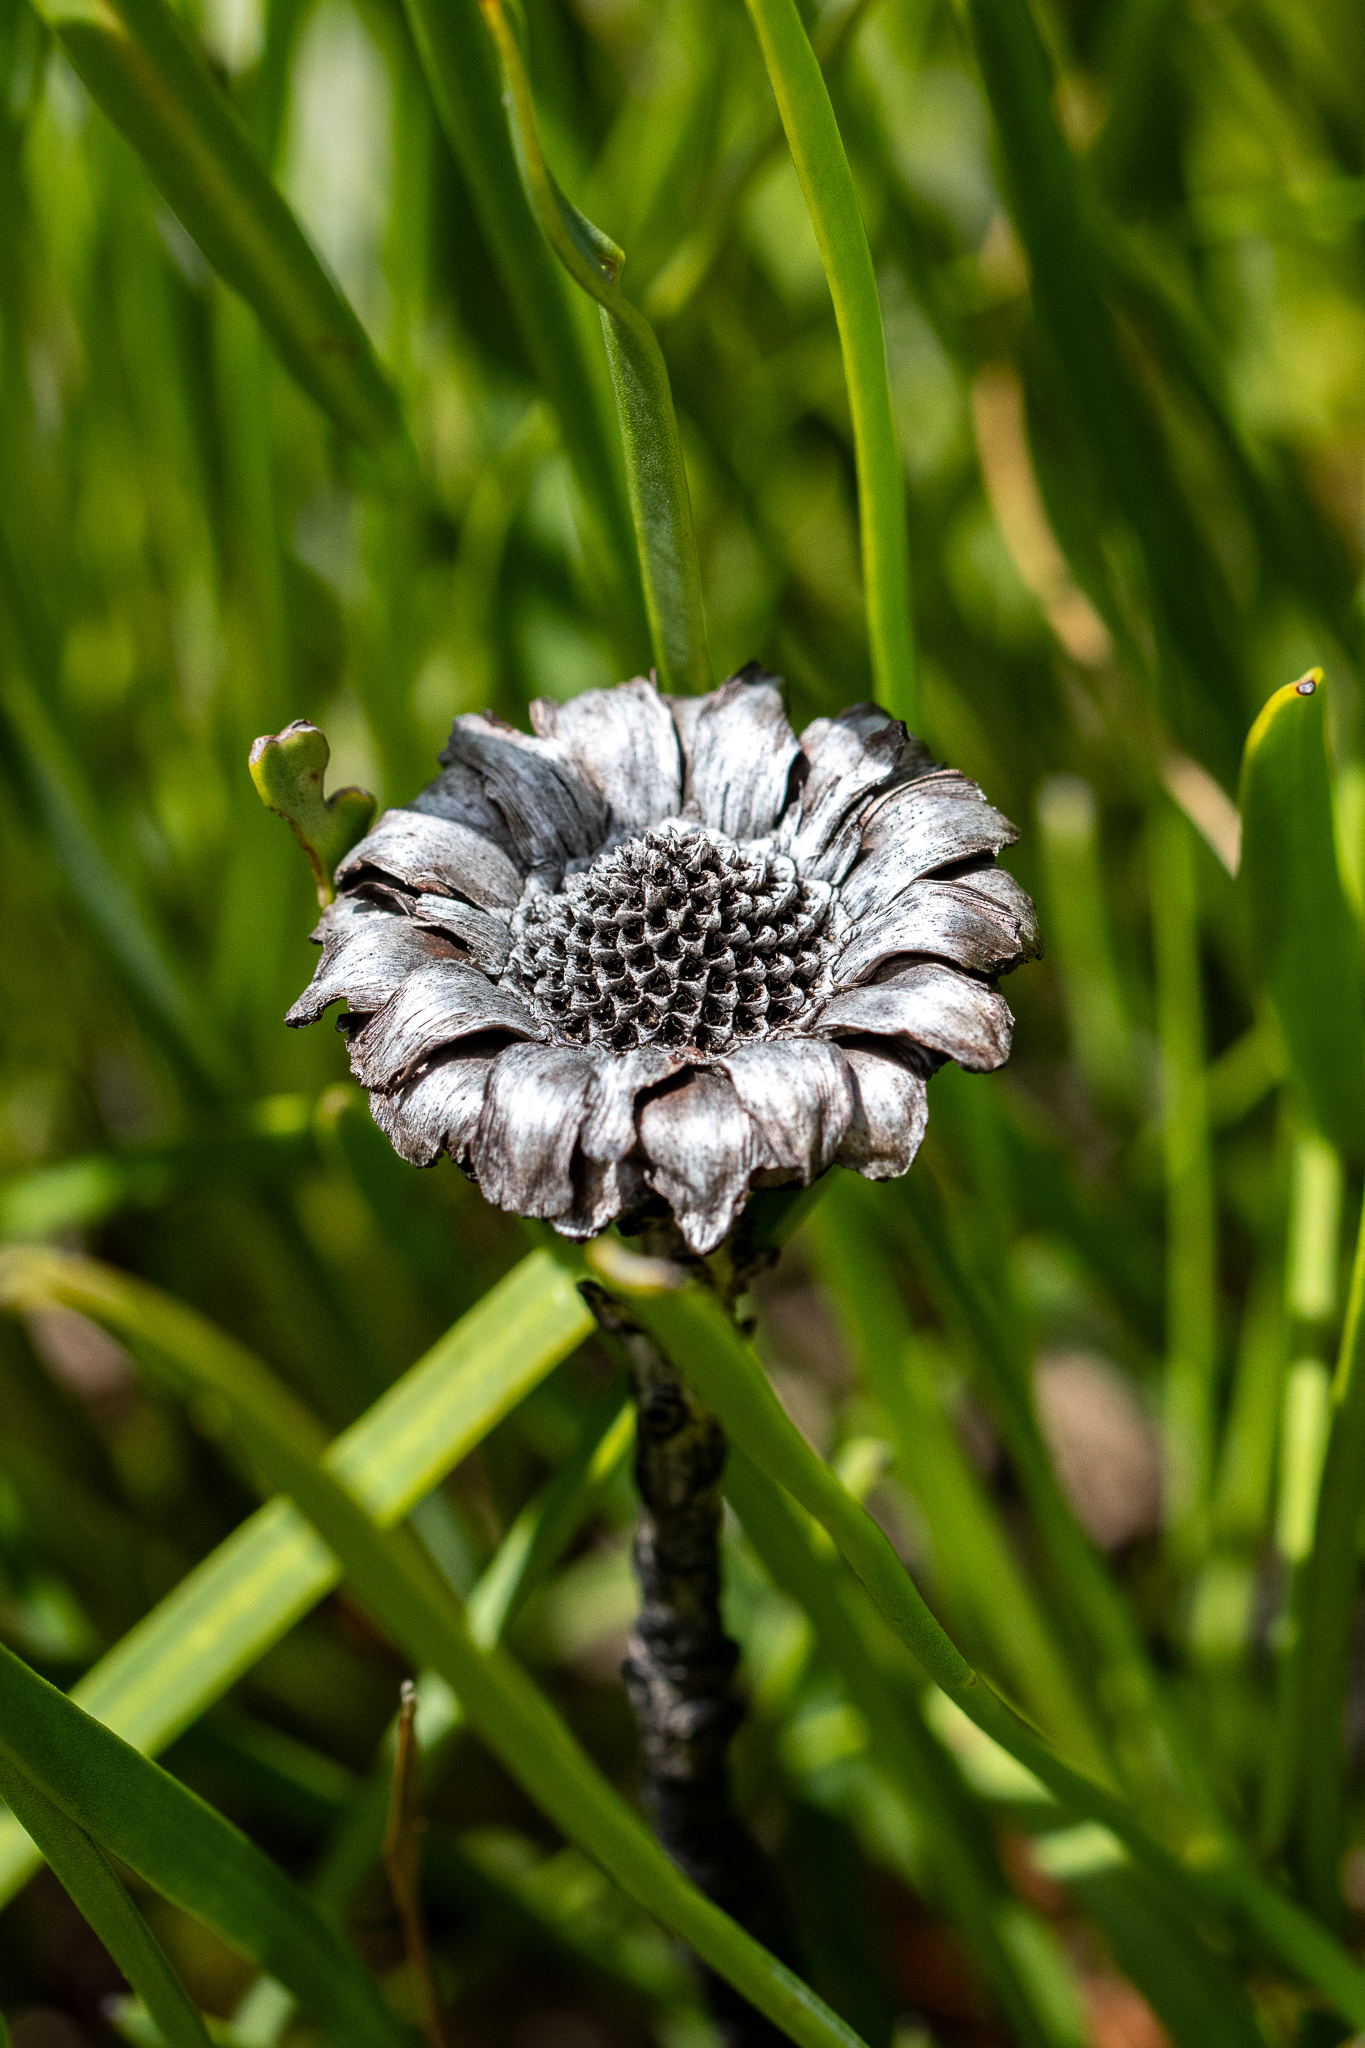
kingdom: Plantae
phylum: Tracheophyta
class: Magnoliopsida
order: Proteales
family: Proteaceae
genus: Protea
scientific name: Protea angustata
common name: Kleinmond sugarbush
